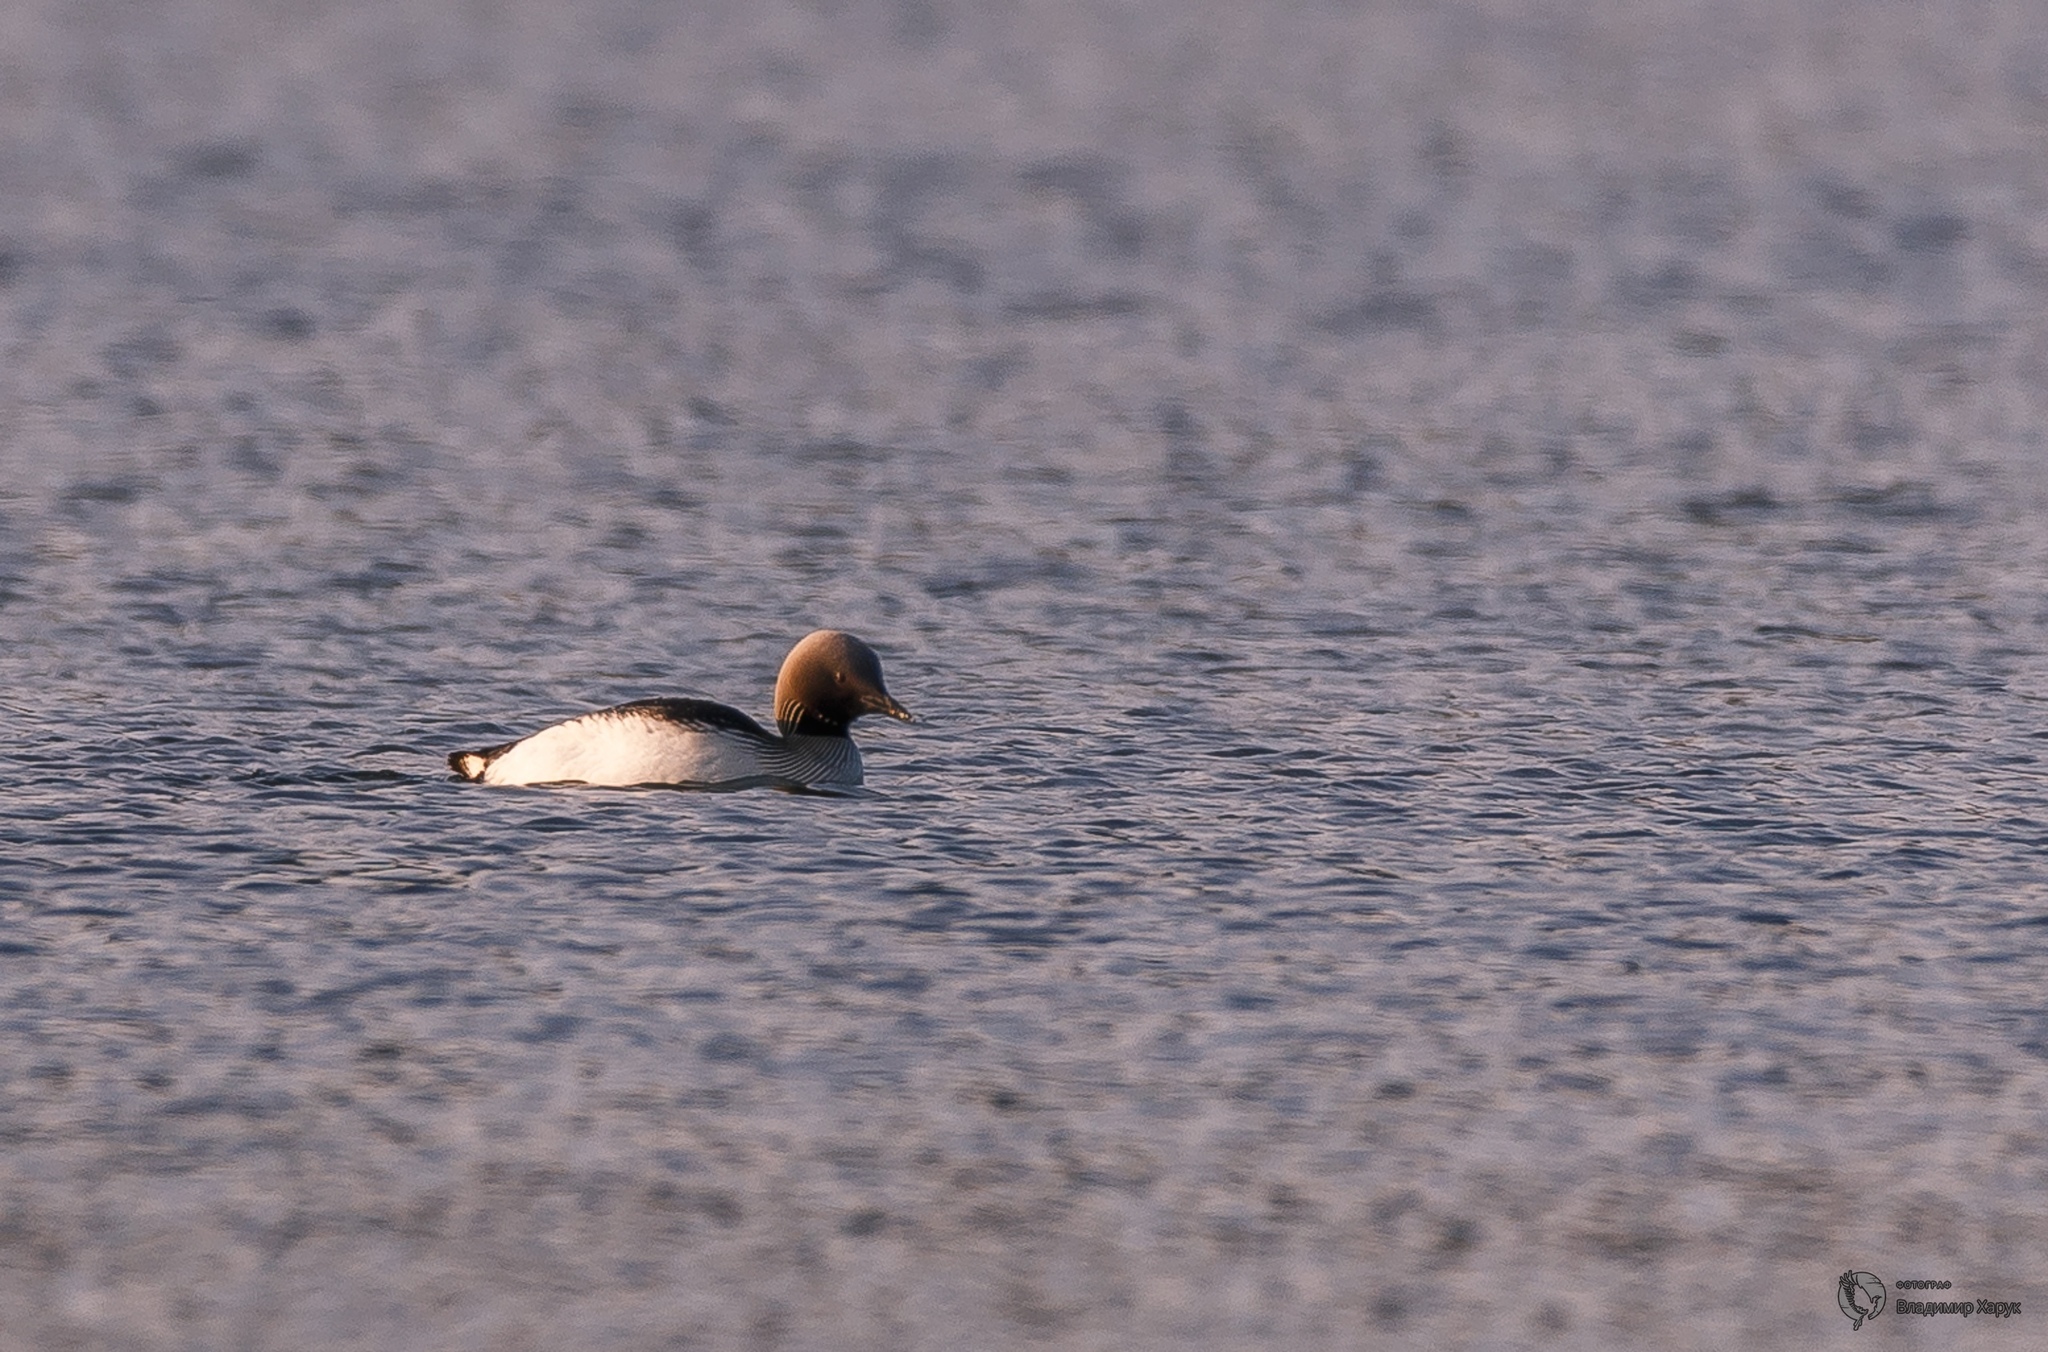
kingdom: Animalia
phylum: Chordata
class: Aves
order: Gaviiformes
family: Gaviidae
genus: Gavia
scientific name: Gavia arctica
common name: Black-throated loon
